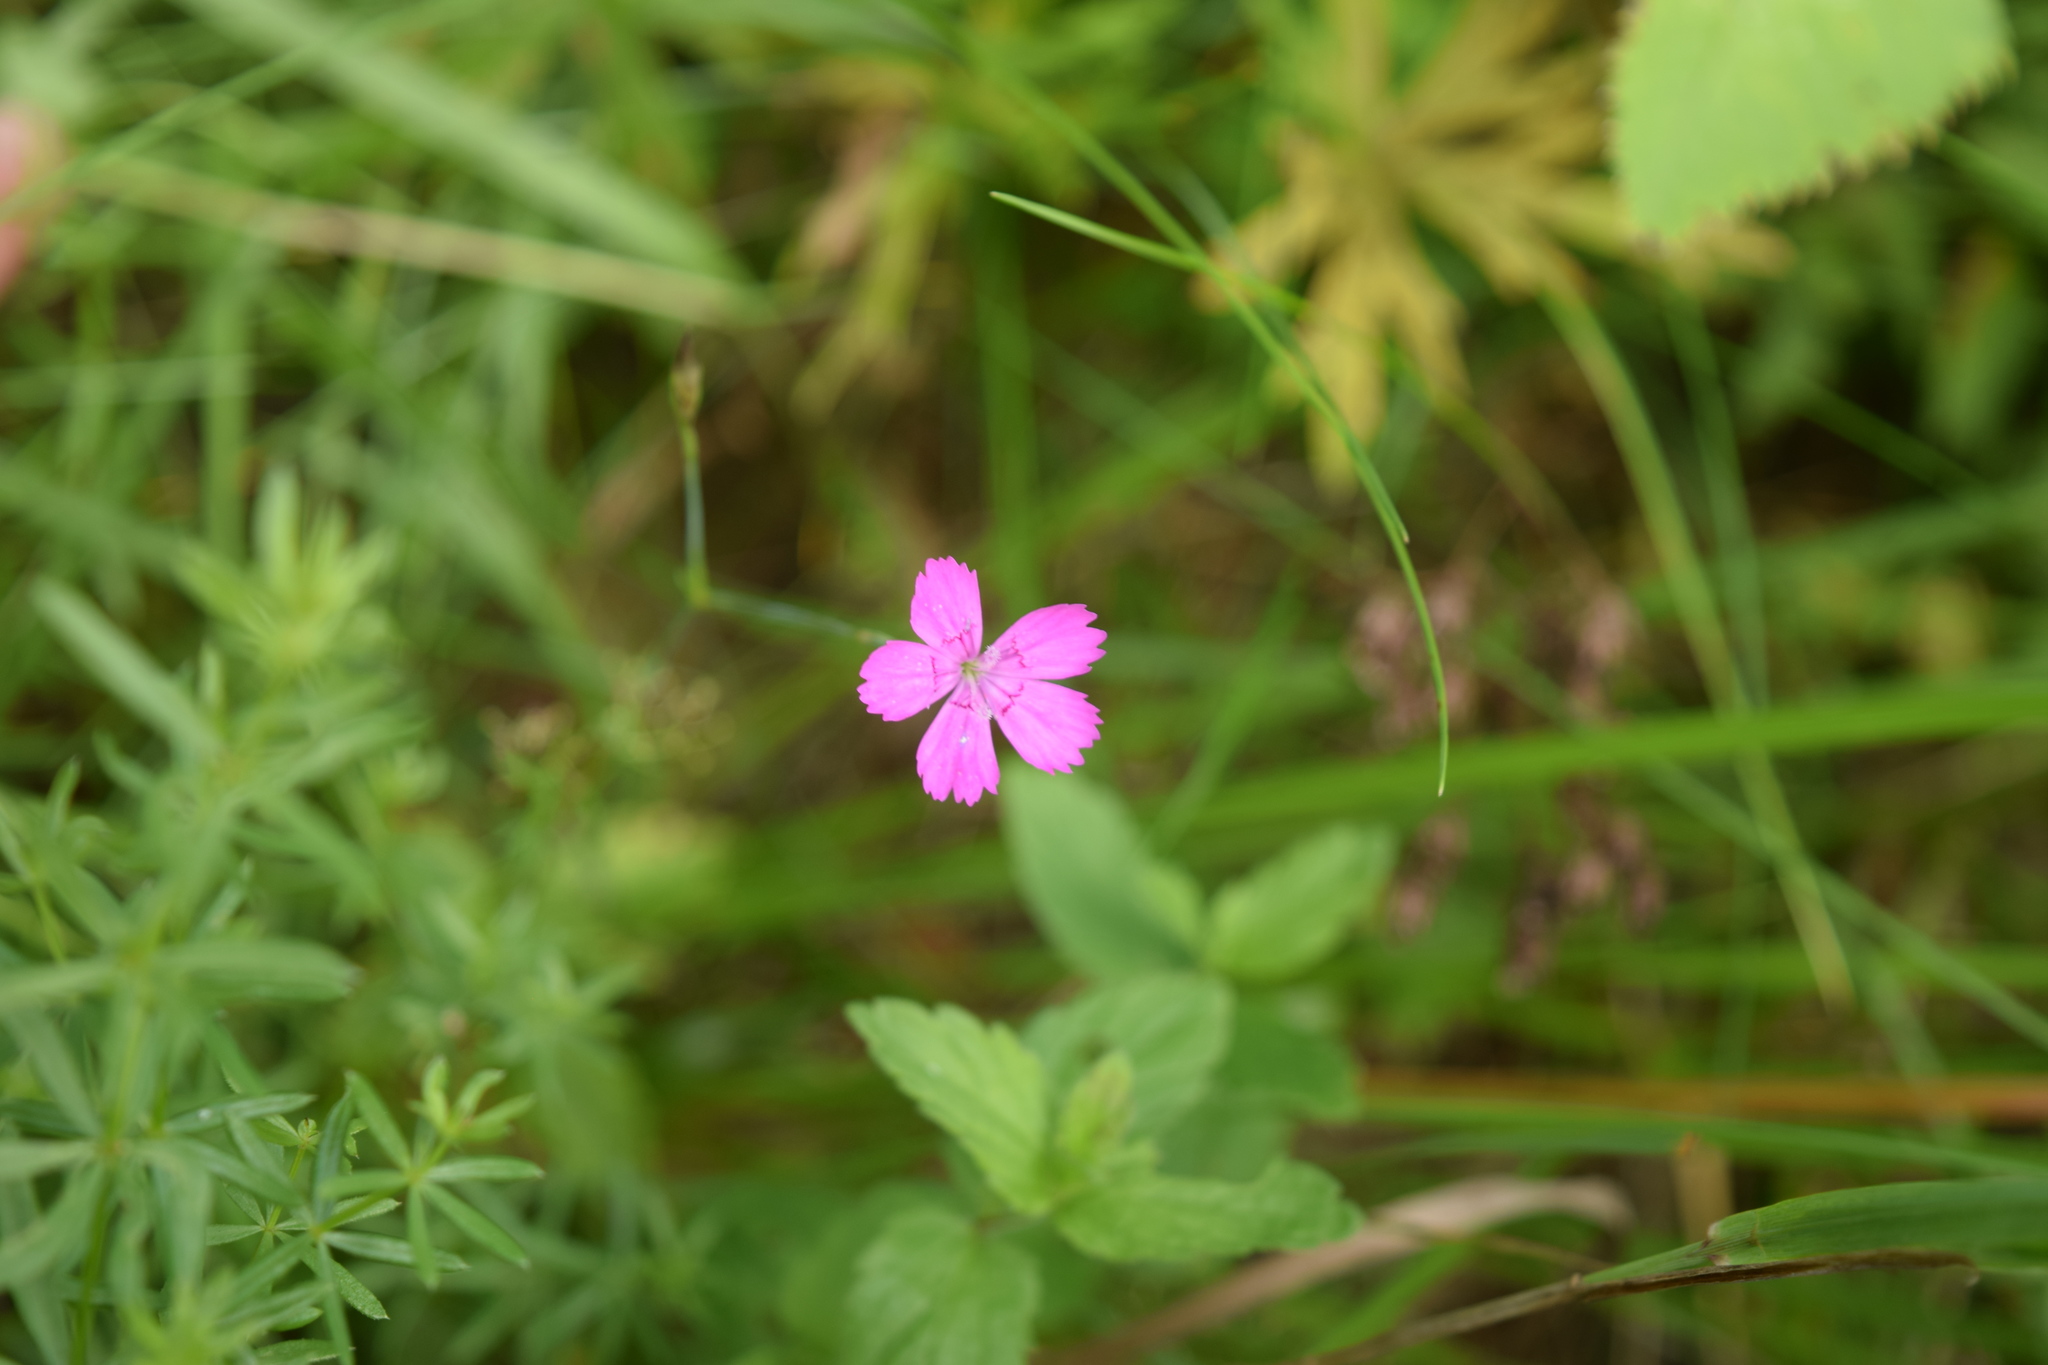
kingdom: Plantae
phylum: Tracheophyta
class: Magnoliopsida
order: Caryophyllales
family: Caryophyllaceae
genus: Dianthus
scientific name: Dianthus deltoides
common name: Maiden pink
